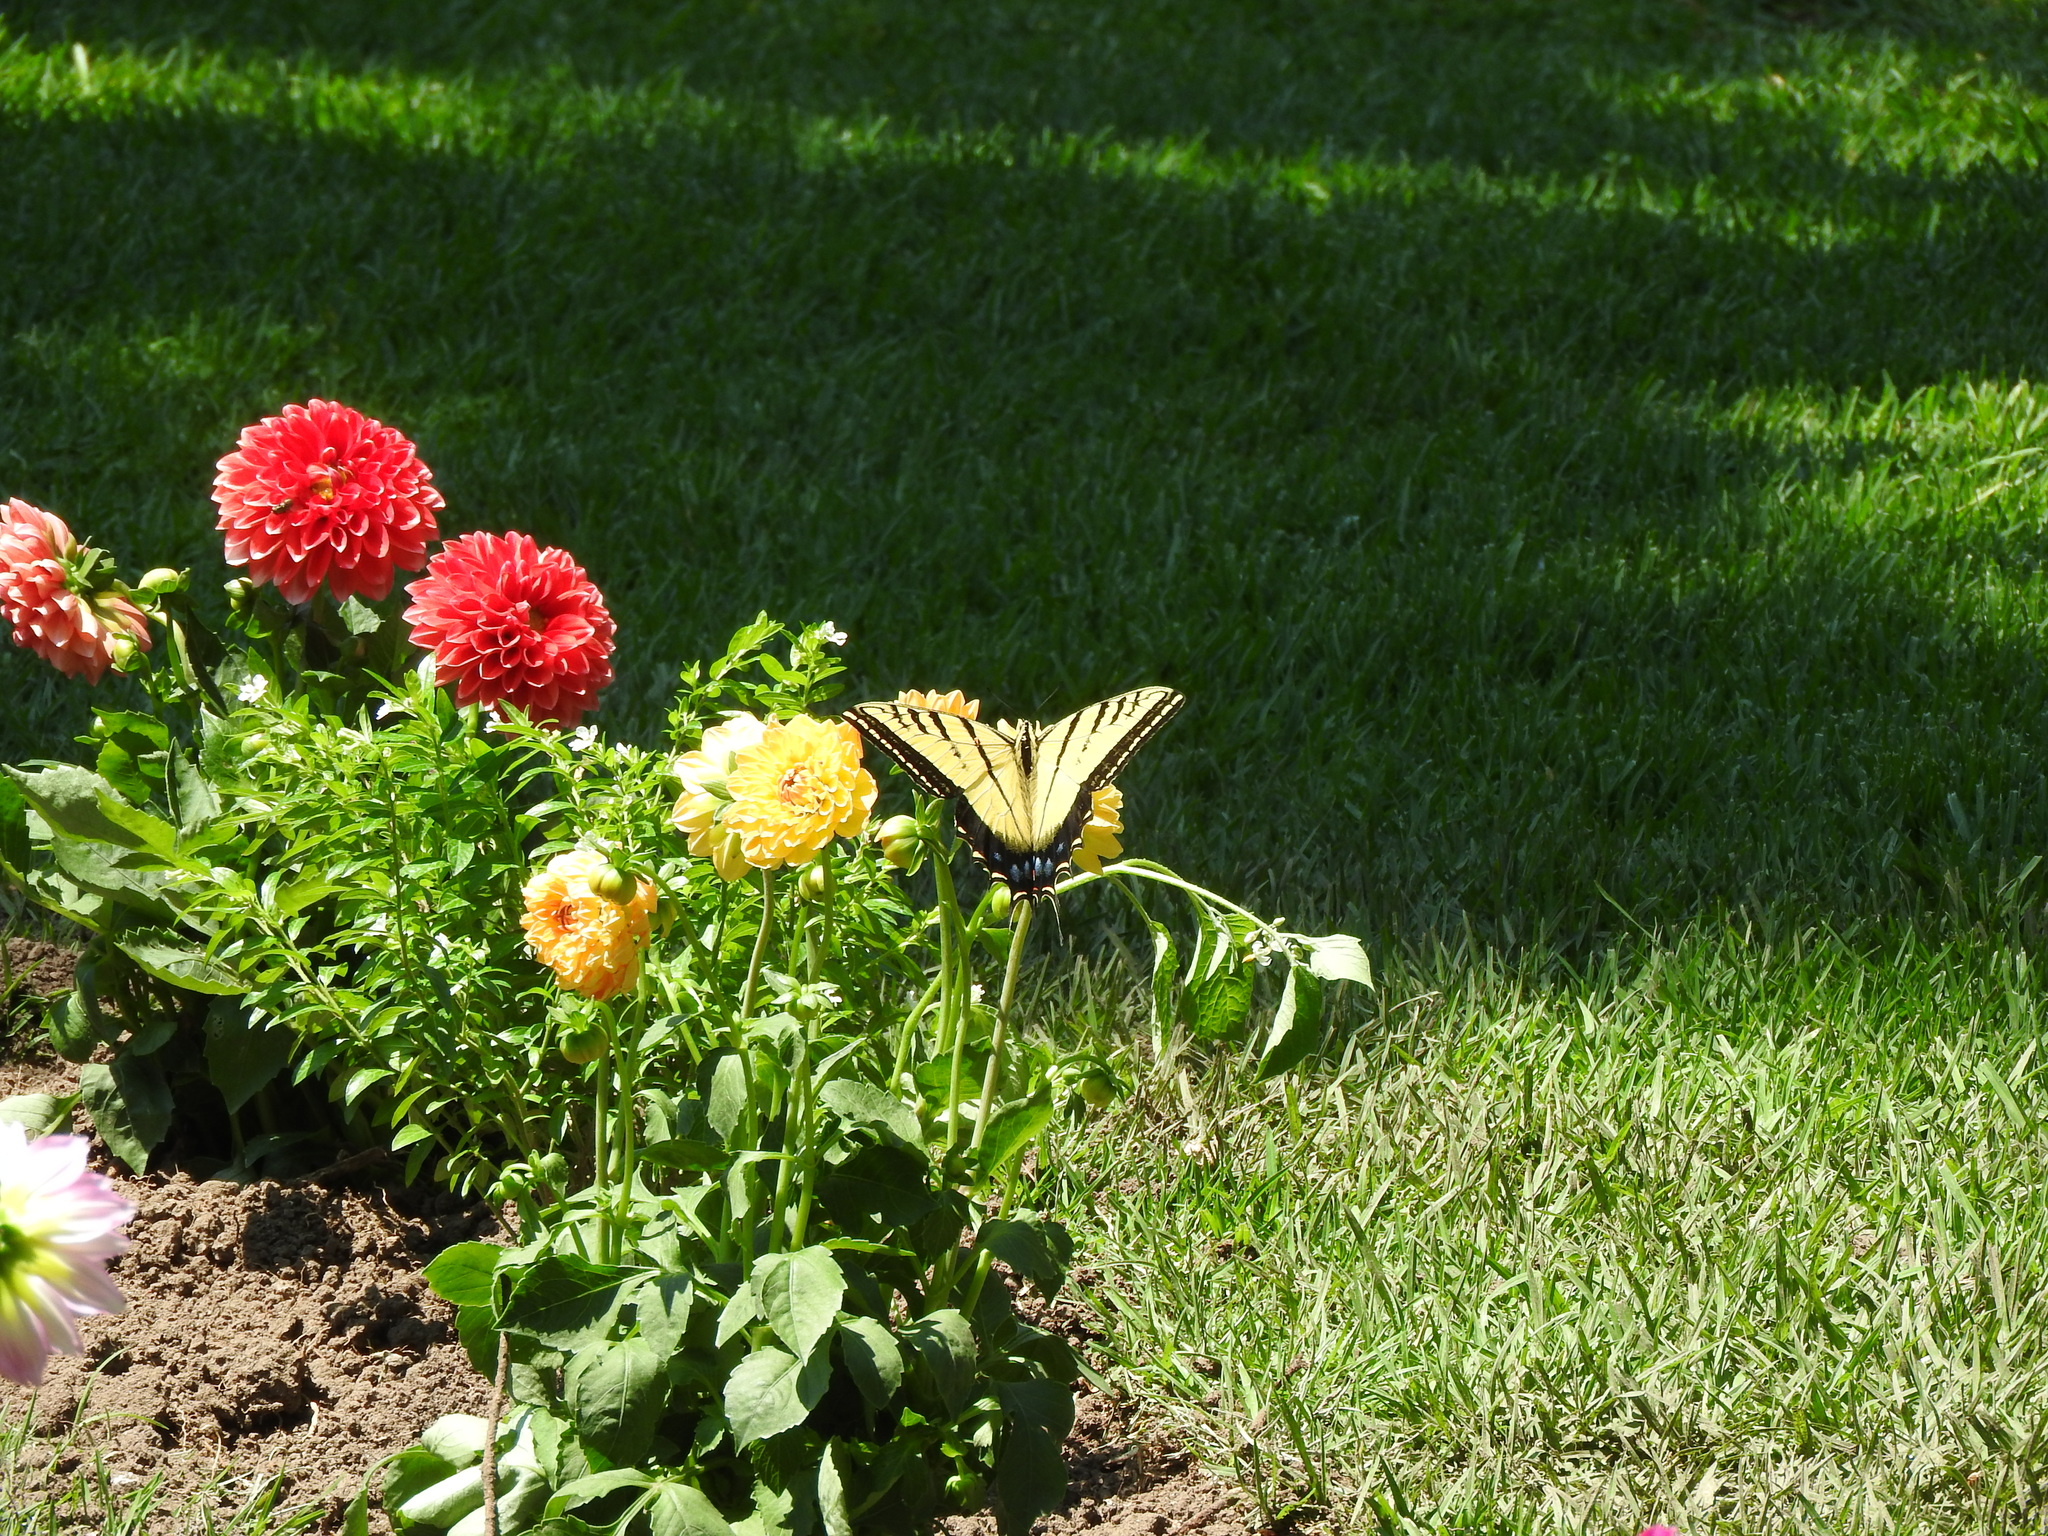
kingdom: Animalia
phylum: Arthropoda
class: Insecta
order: Lepidoptera
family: Papilionidae
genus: Papilio
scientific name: Papilio multicaudata
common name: Two-tailed tiger swallowtail
